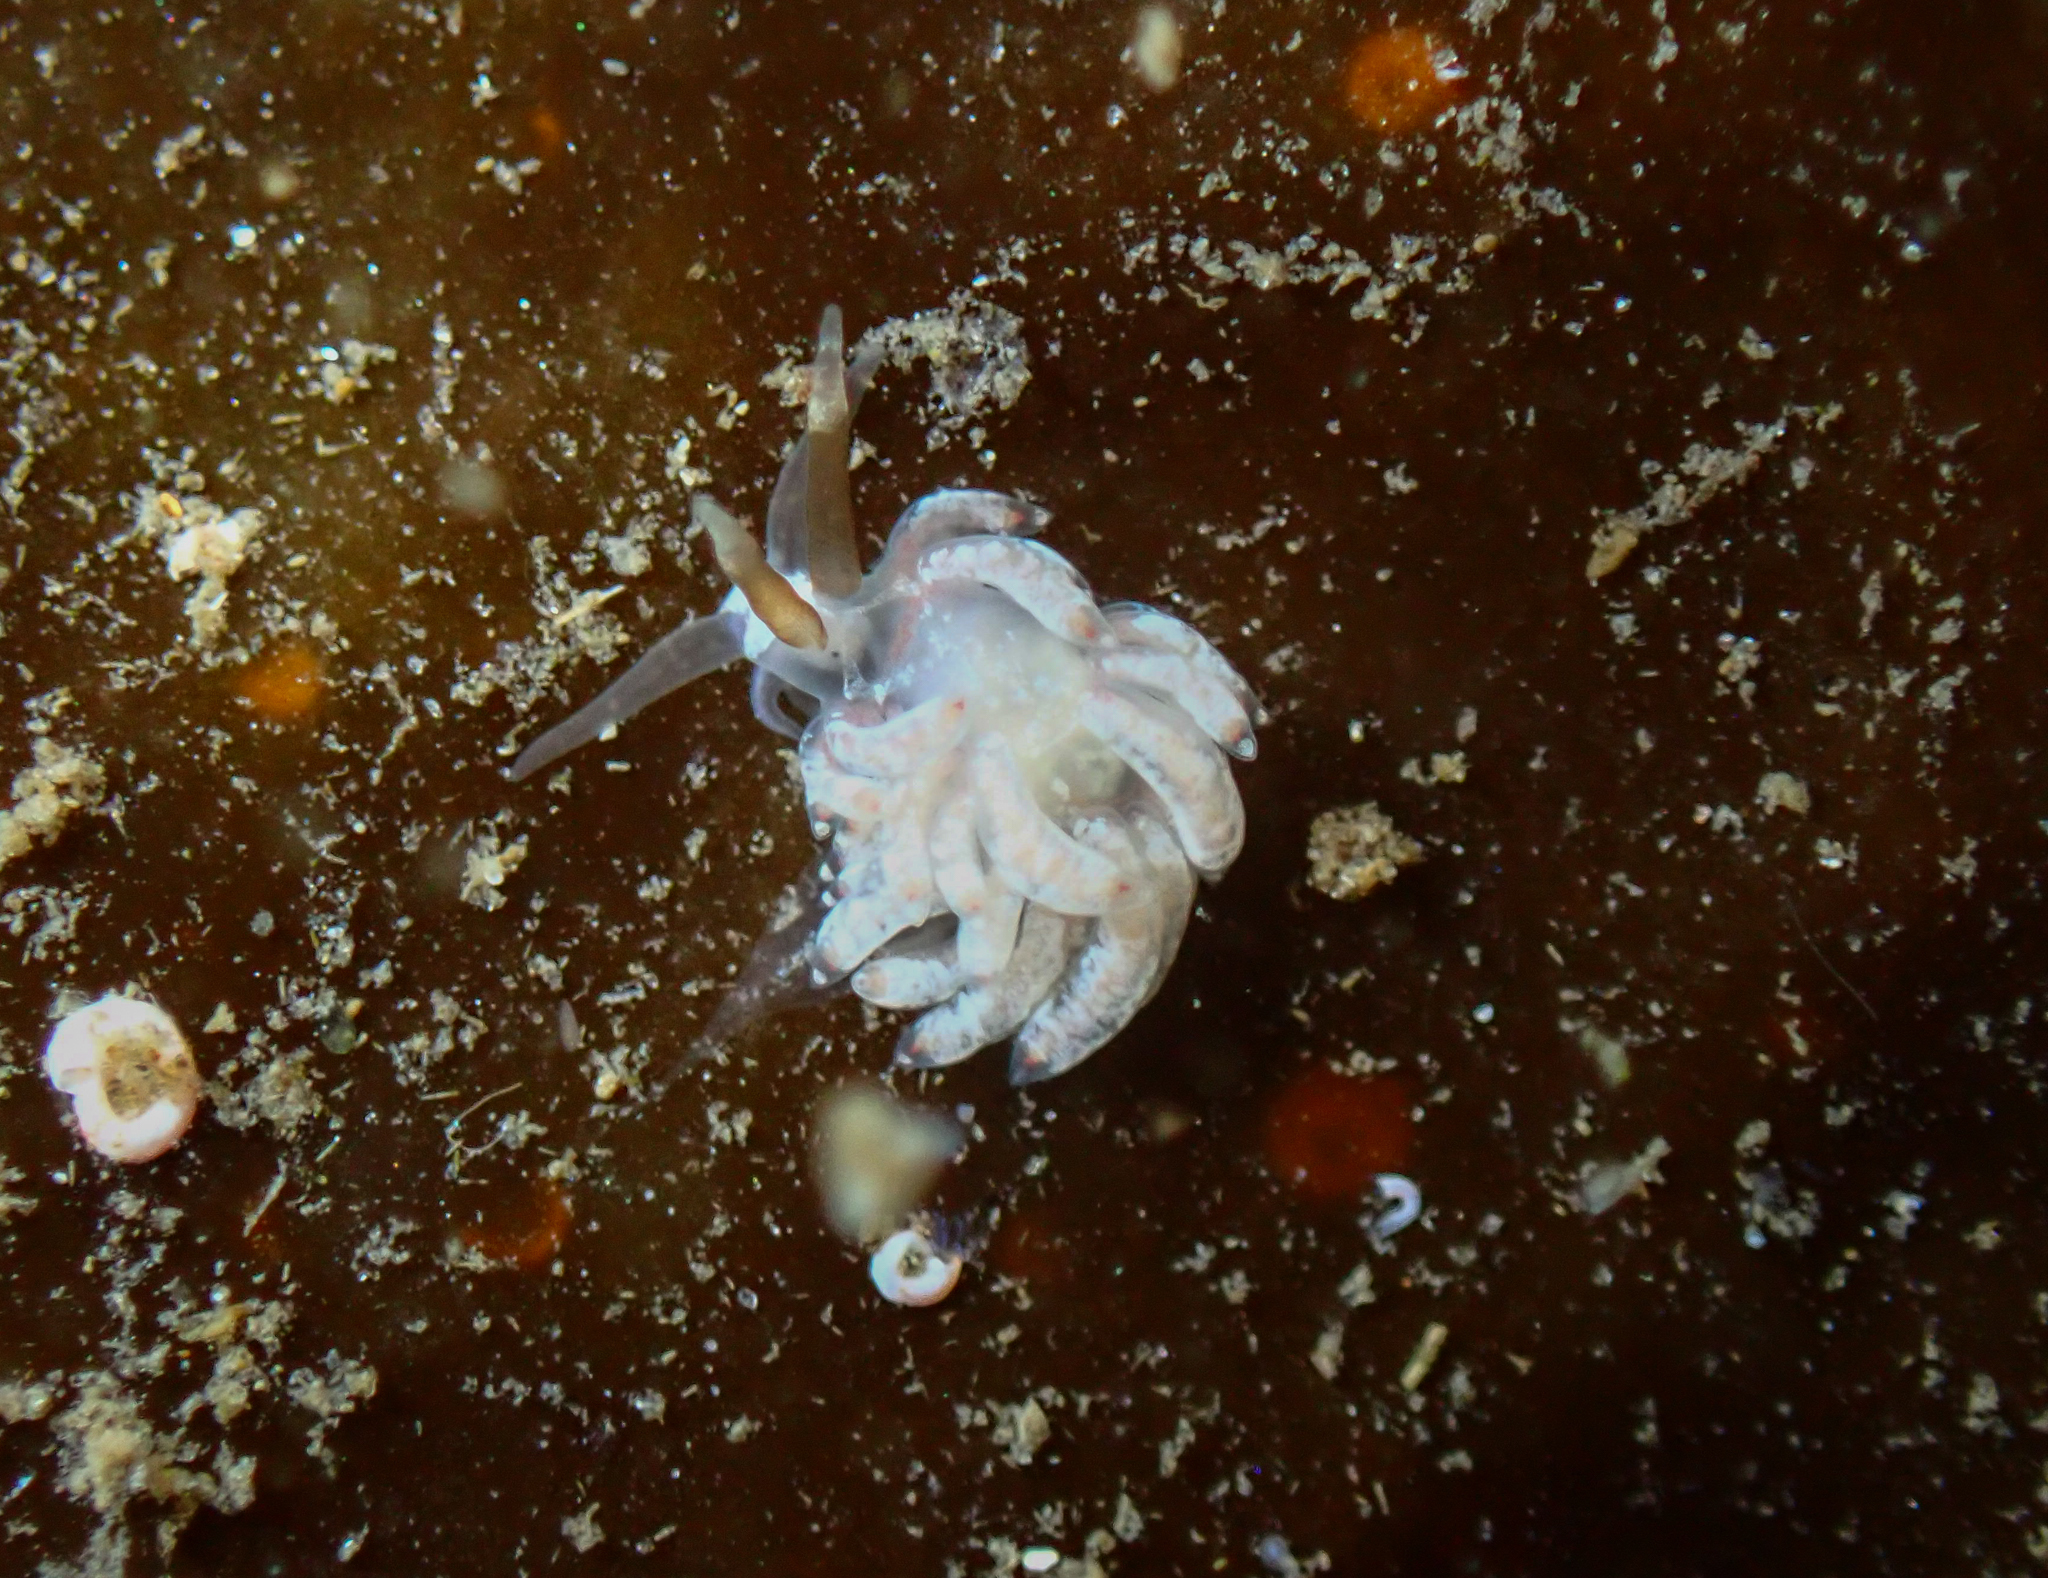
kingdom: Animalia
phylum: Mollusca
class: Gastropoda
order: Nudibranchia
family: Facelinidae
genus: Favorinus
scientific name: Favorinus branchialis
